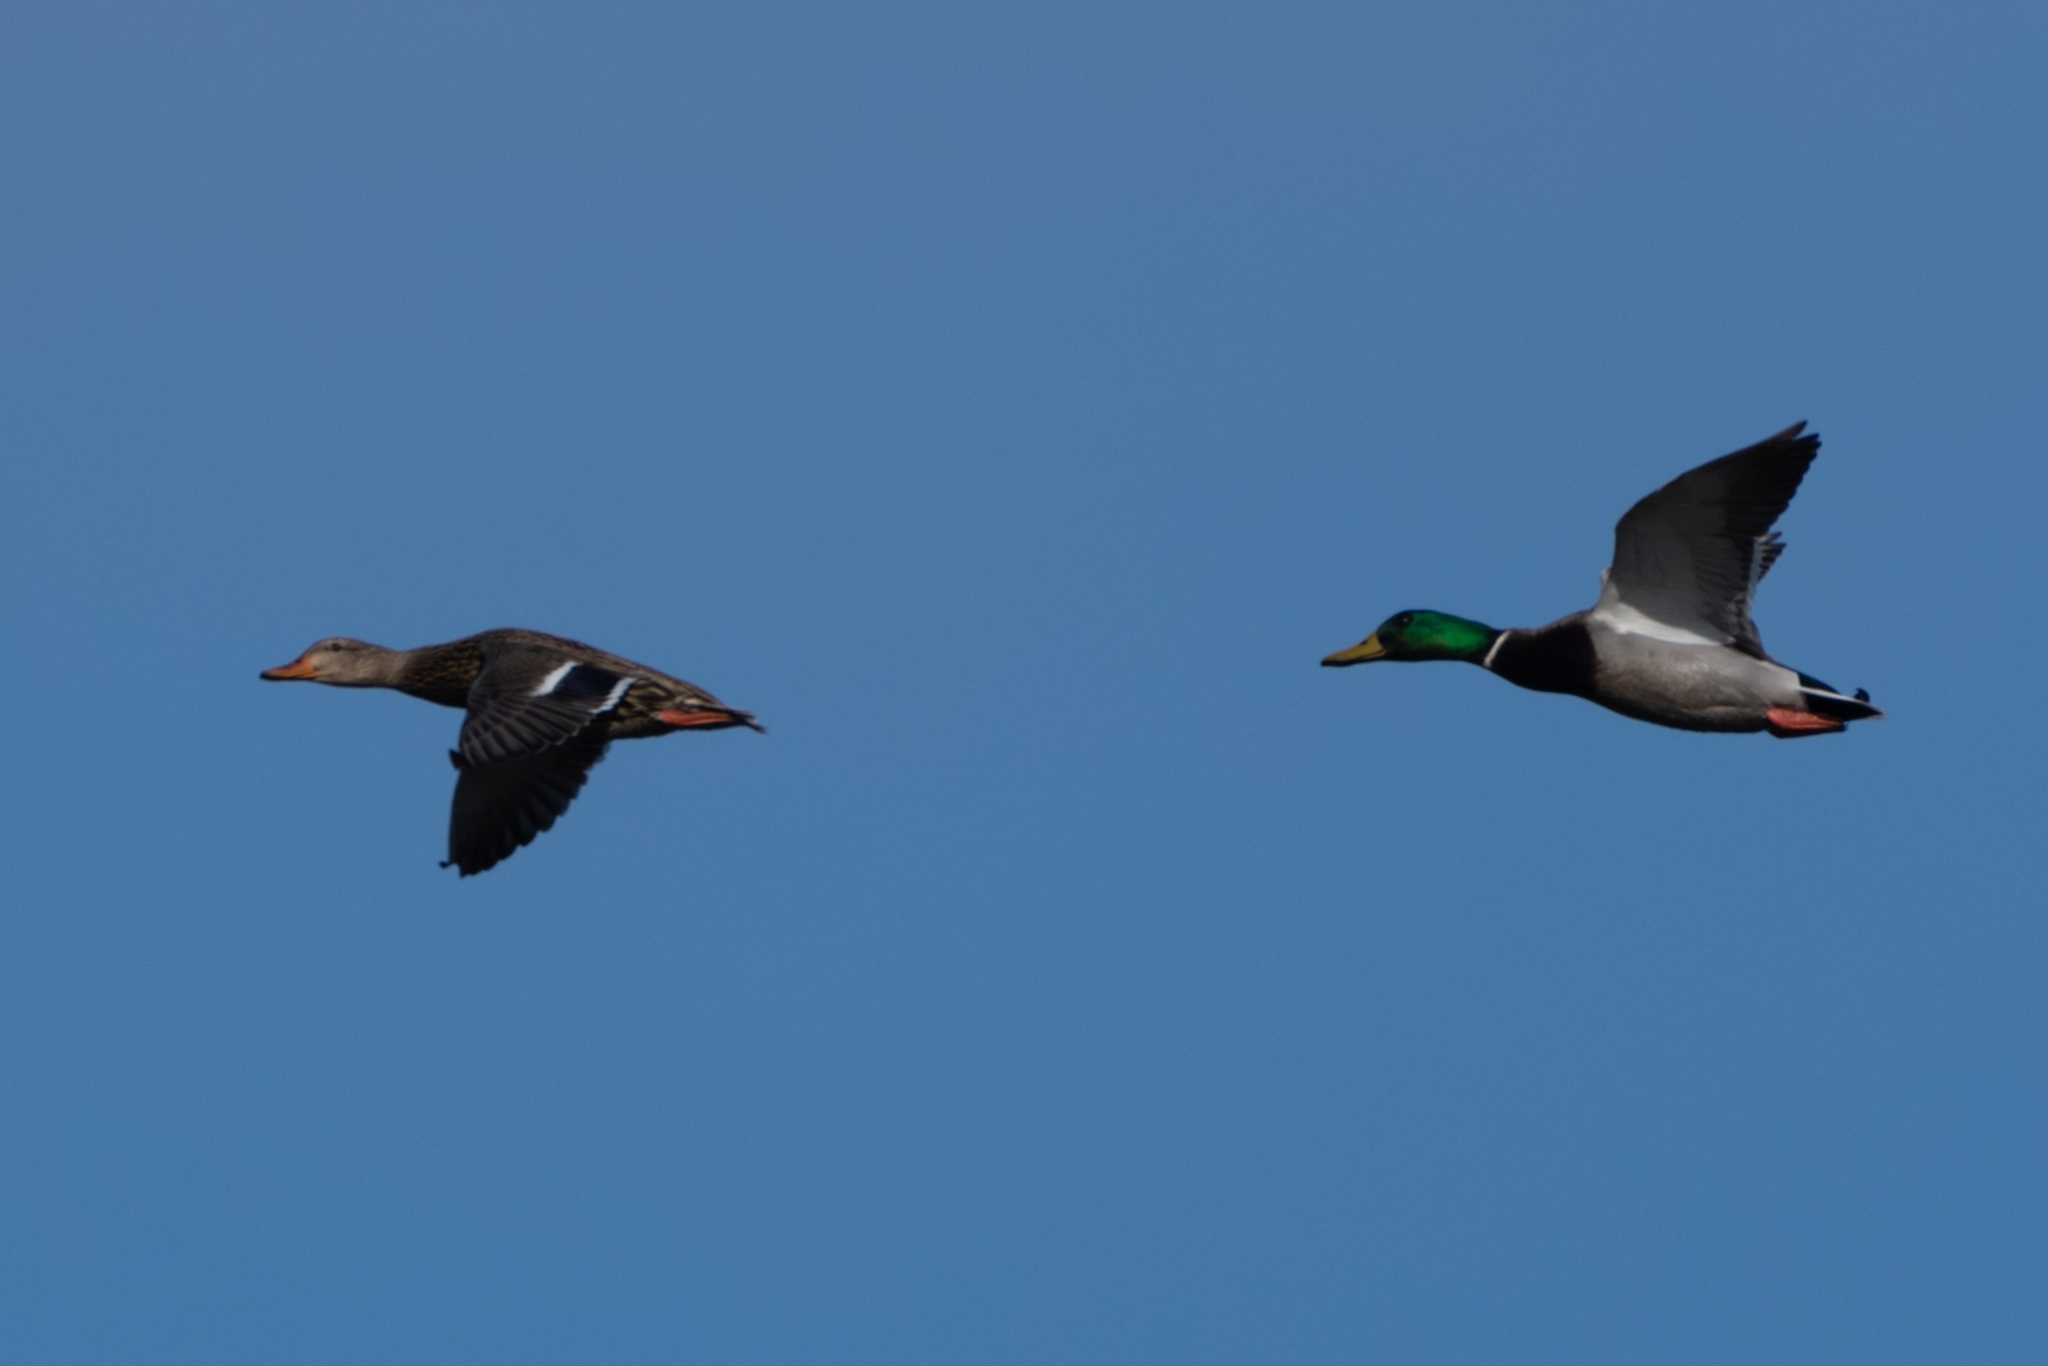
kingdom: Animalia
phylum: Chordata
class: Aves
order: Anseriformes
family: Anatidae
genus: Anas
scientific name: Anas platyrhynchos
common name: Mallard
